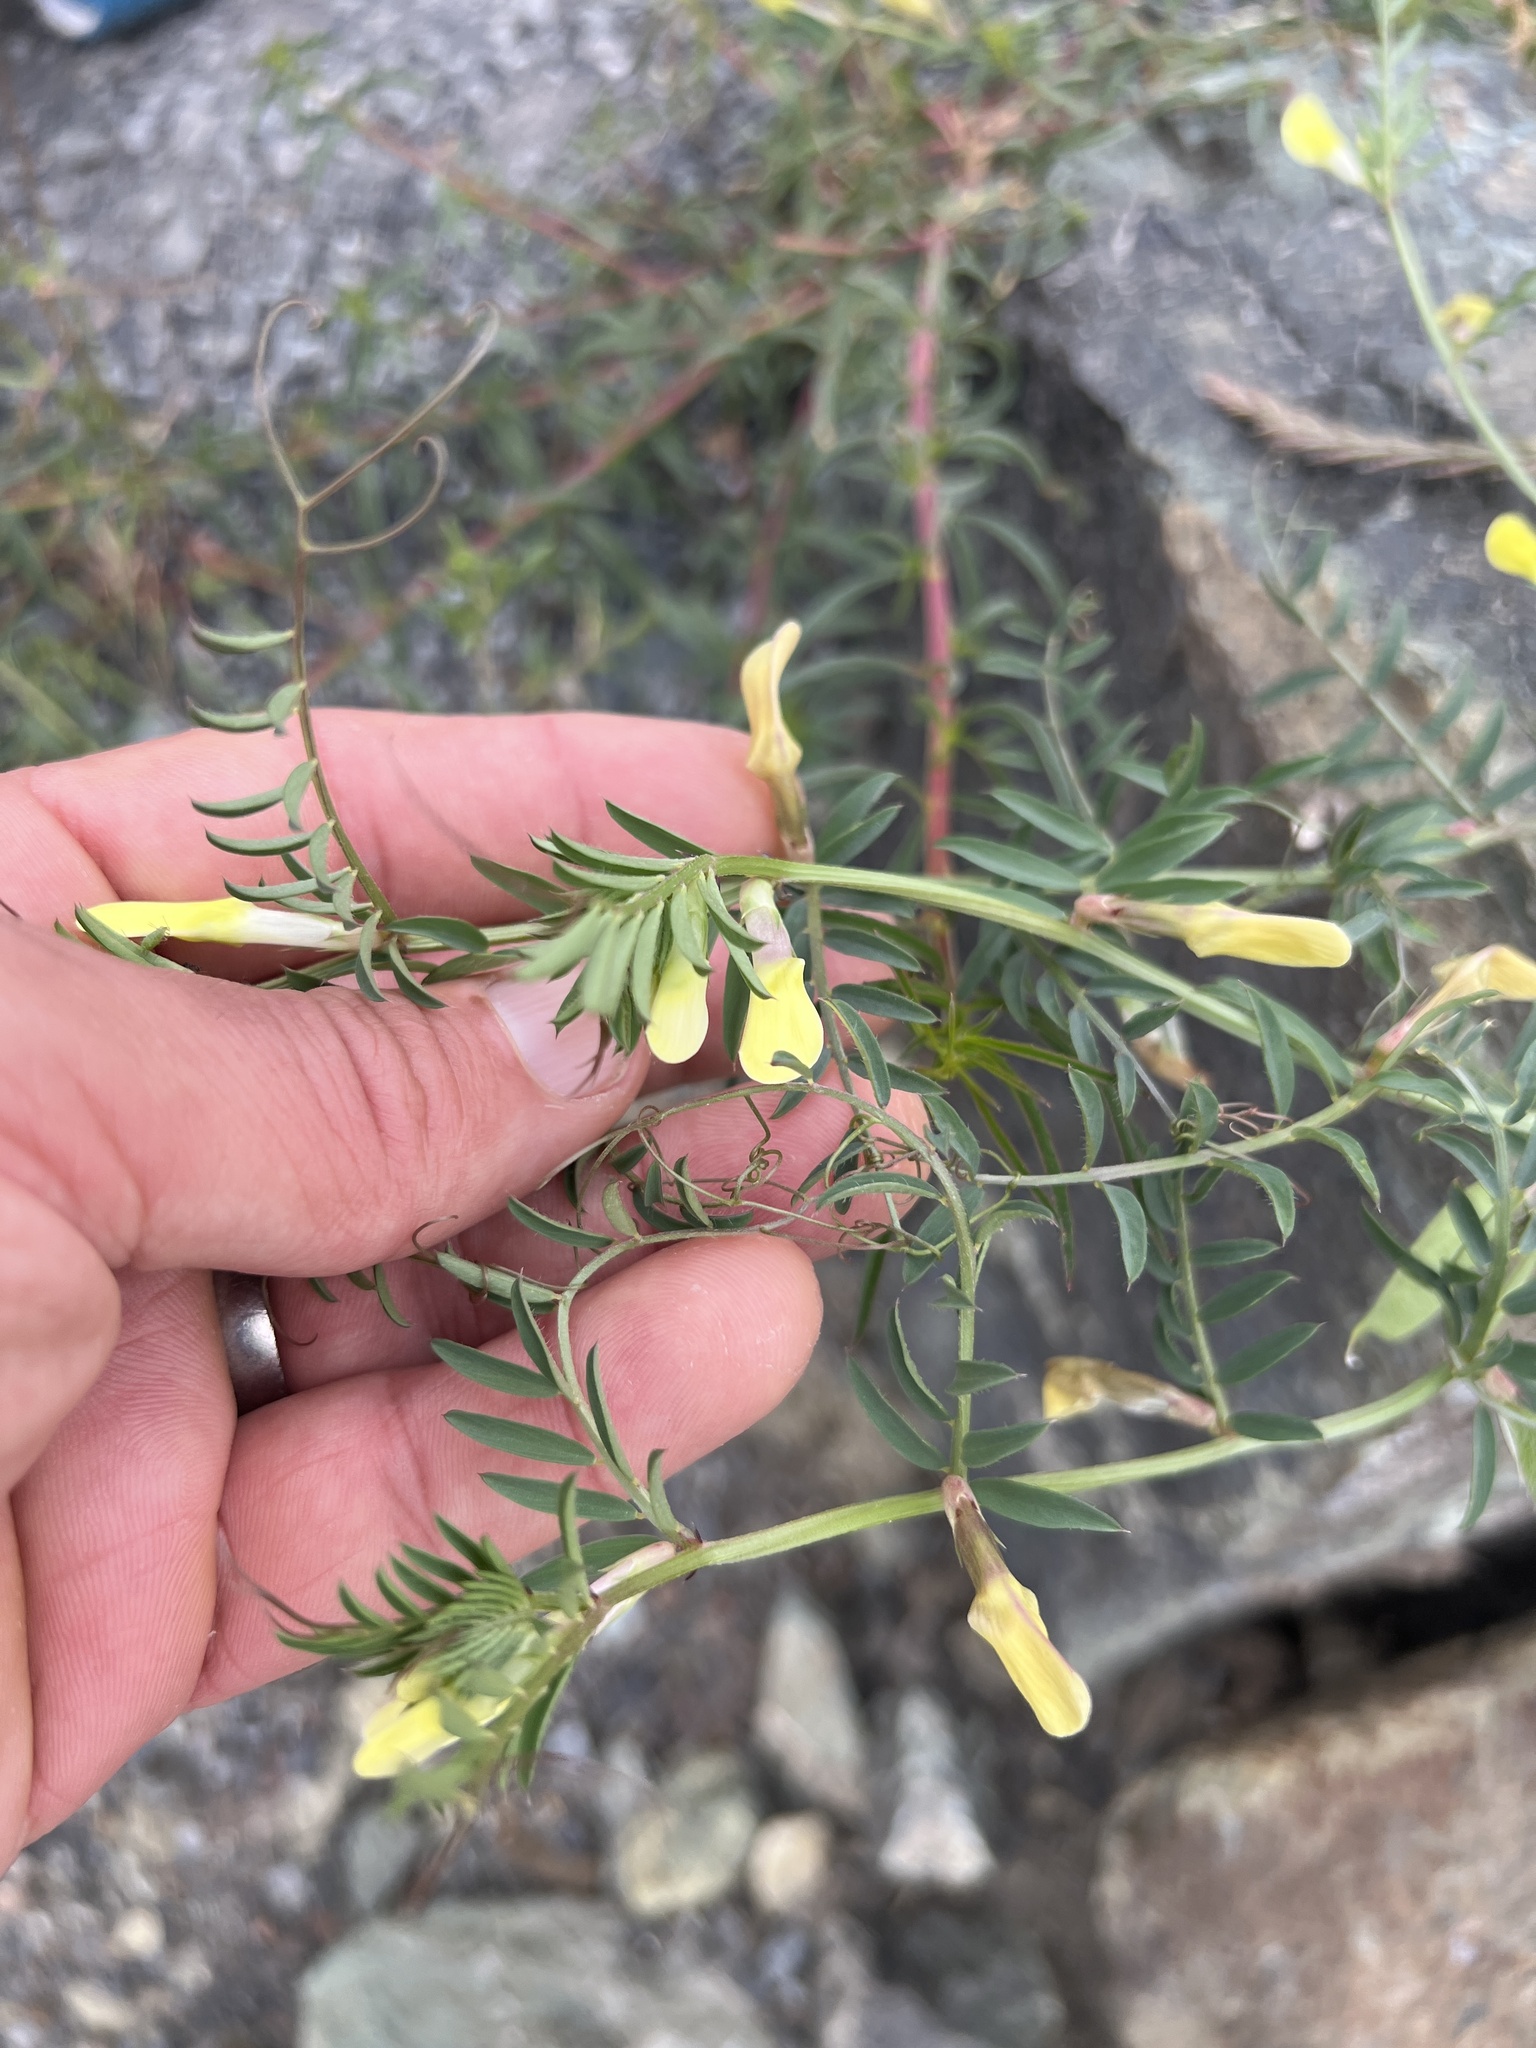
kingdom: Plantae
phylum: Tracheophyta
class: Magnoliopsida
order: Fabales
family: Fabaceae
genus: Vicia
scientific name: Vicia lutea
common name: Smooth yellow vetch
